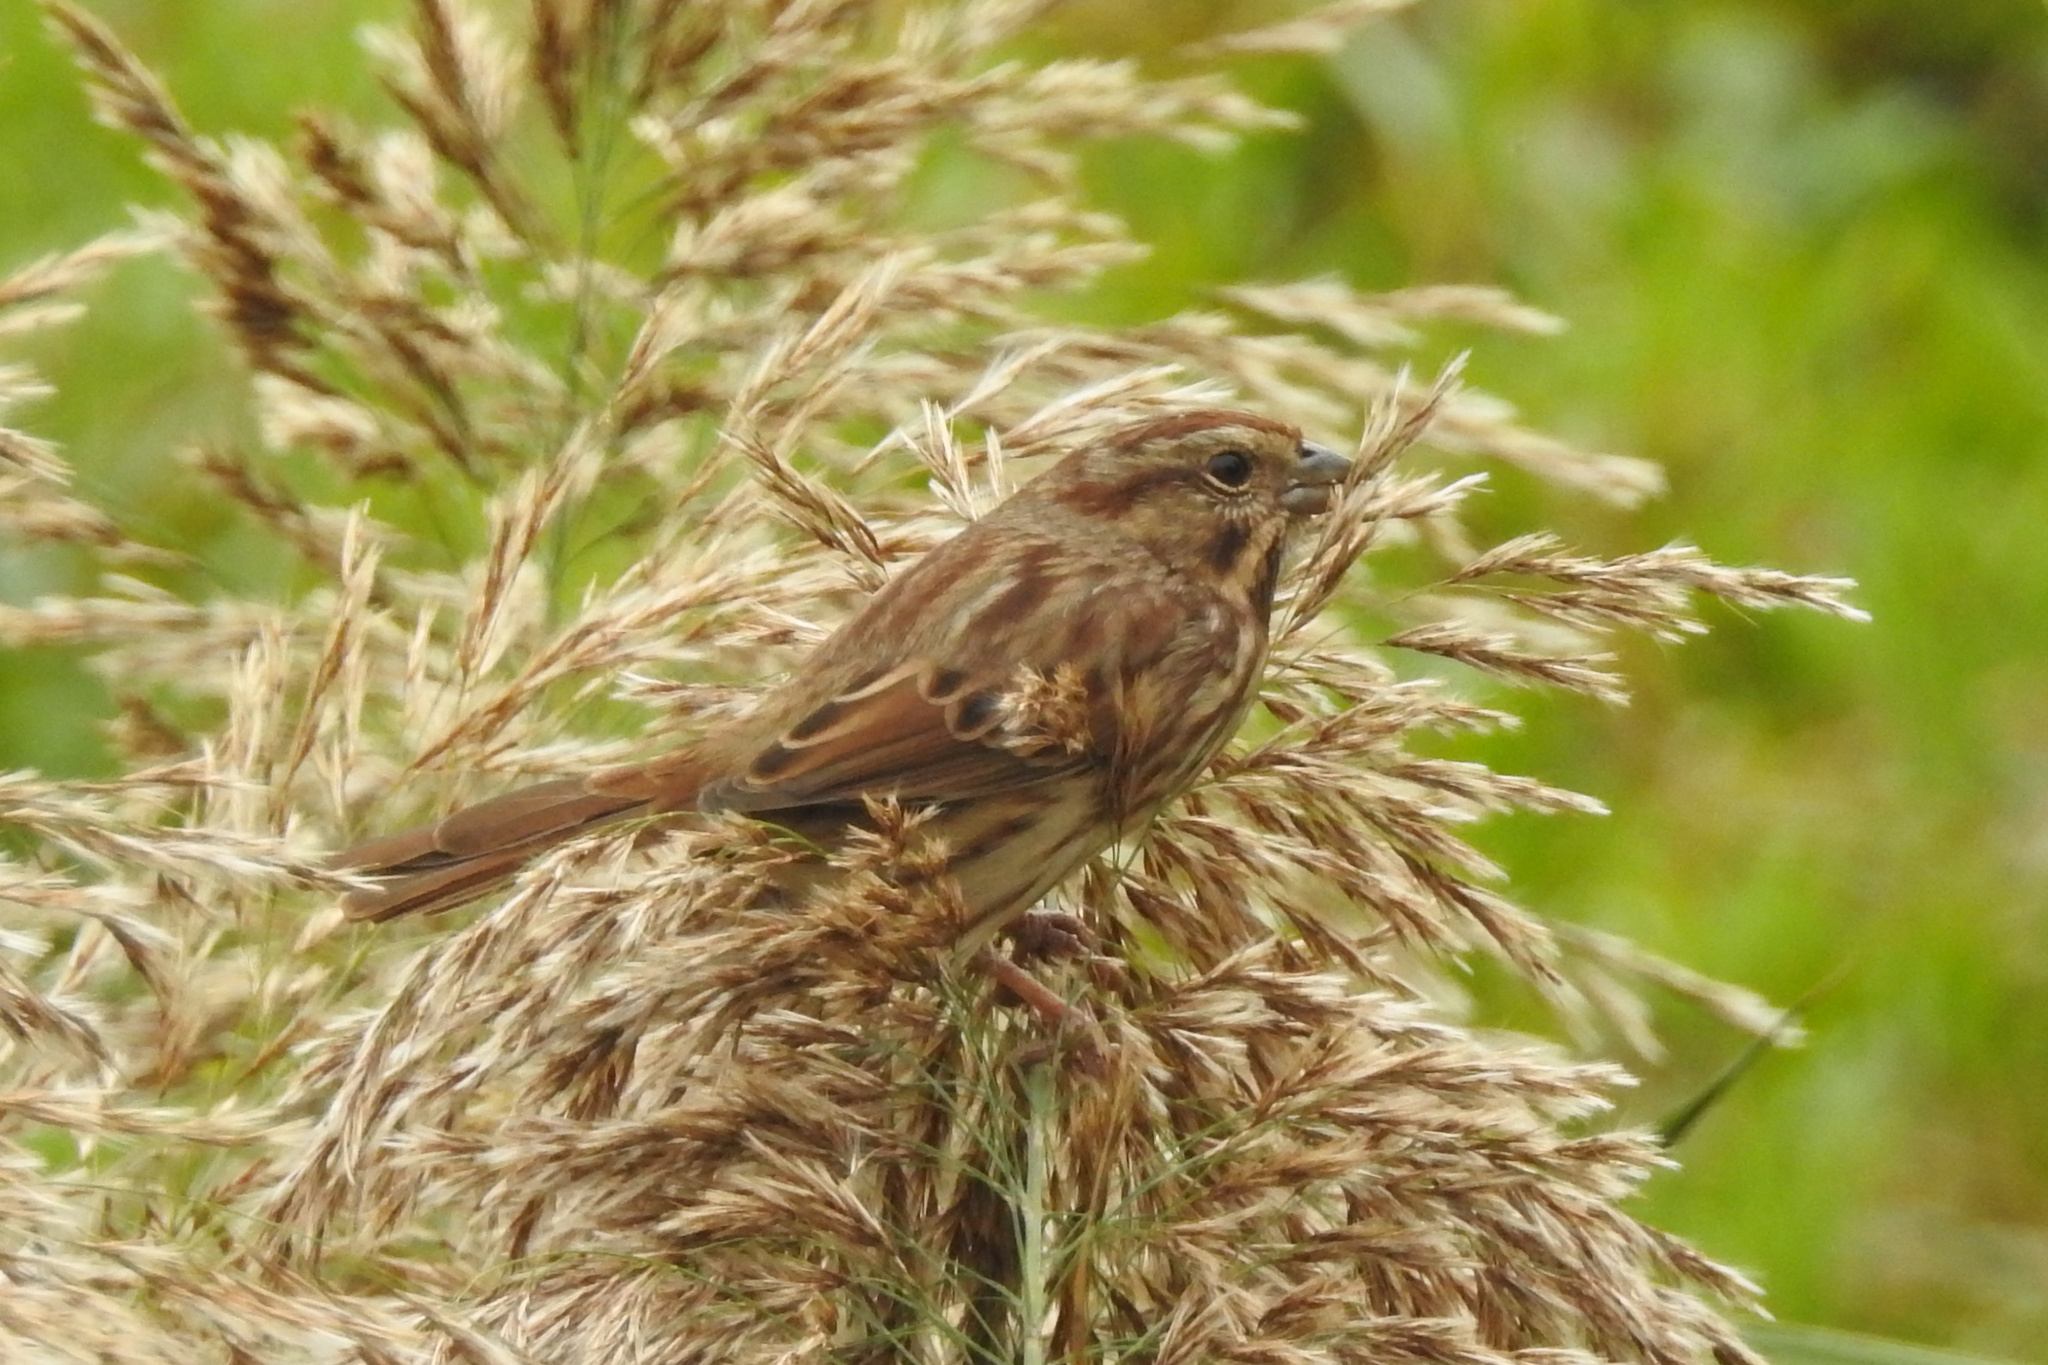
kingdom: Animalia
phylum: Chordata
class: Aves
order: Passeriformes
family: Passerellidae
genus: Melospiza
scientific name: Melospiza melodia
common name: Song sparrow
